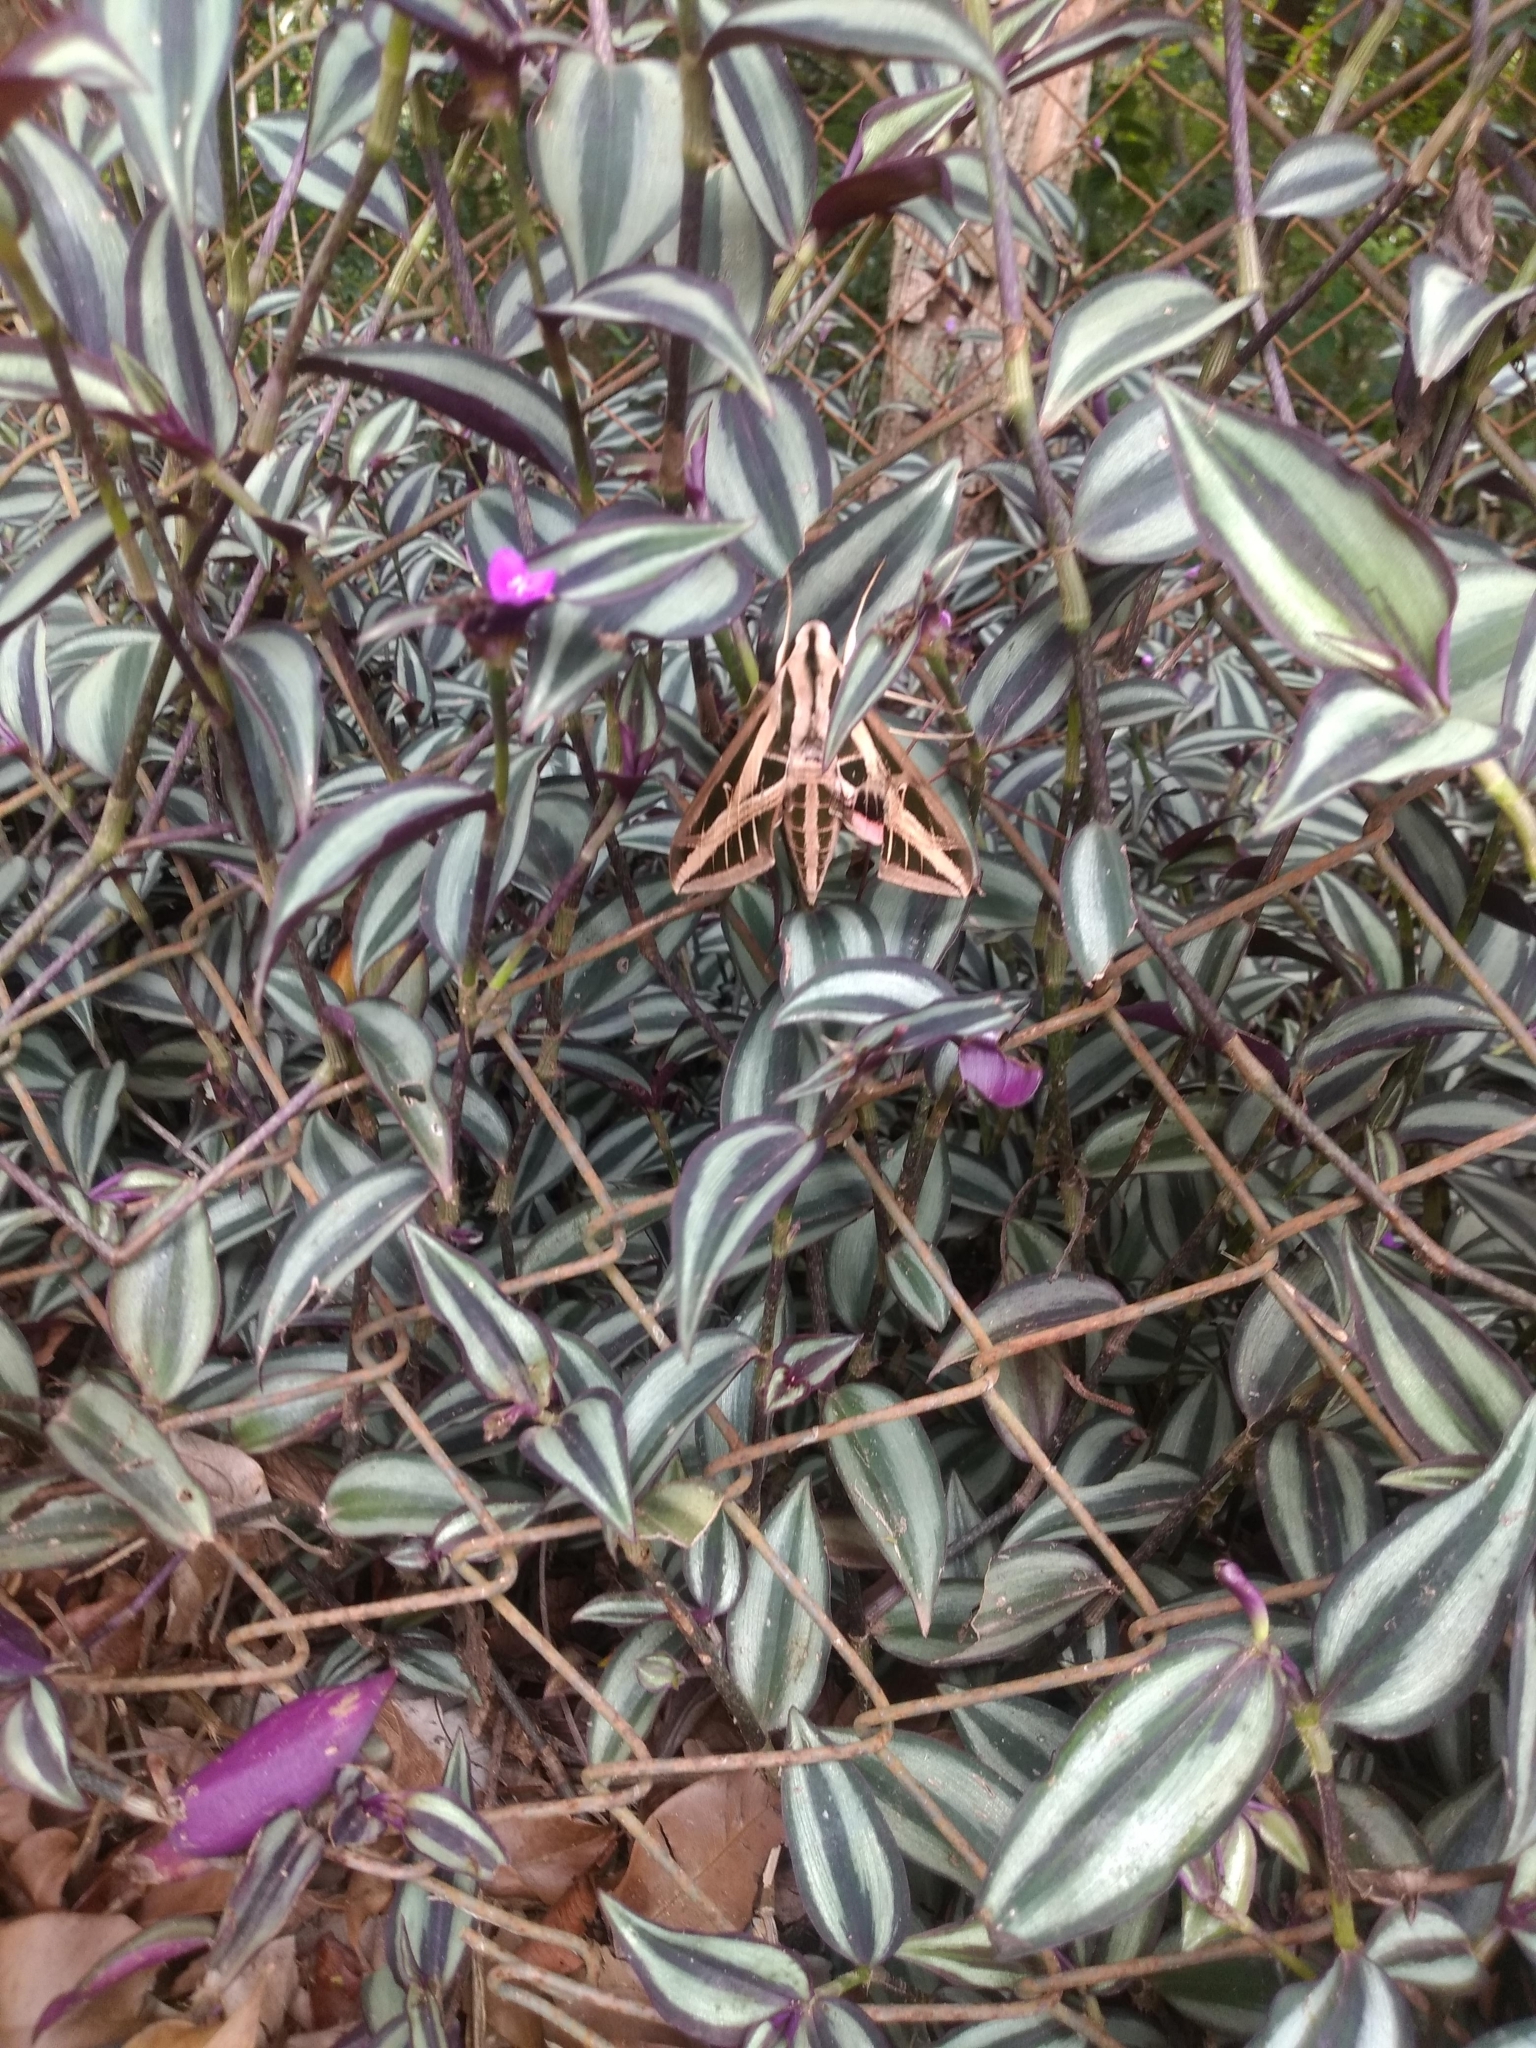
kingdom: Animalia
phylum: Arthropoda
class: Insecta
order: Lepidoptera
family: Sphingidae
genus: Eumorpha
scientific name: Eumorpha fasciatus
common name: Banded sphinx
